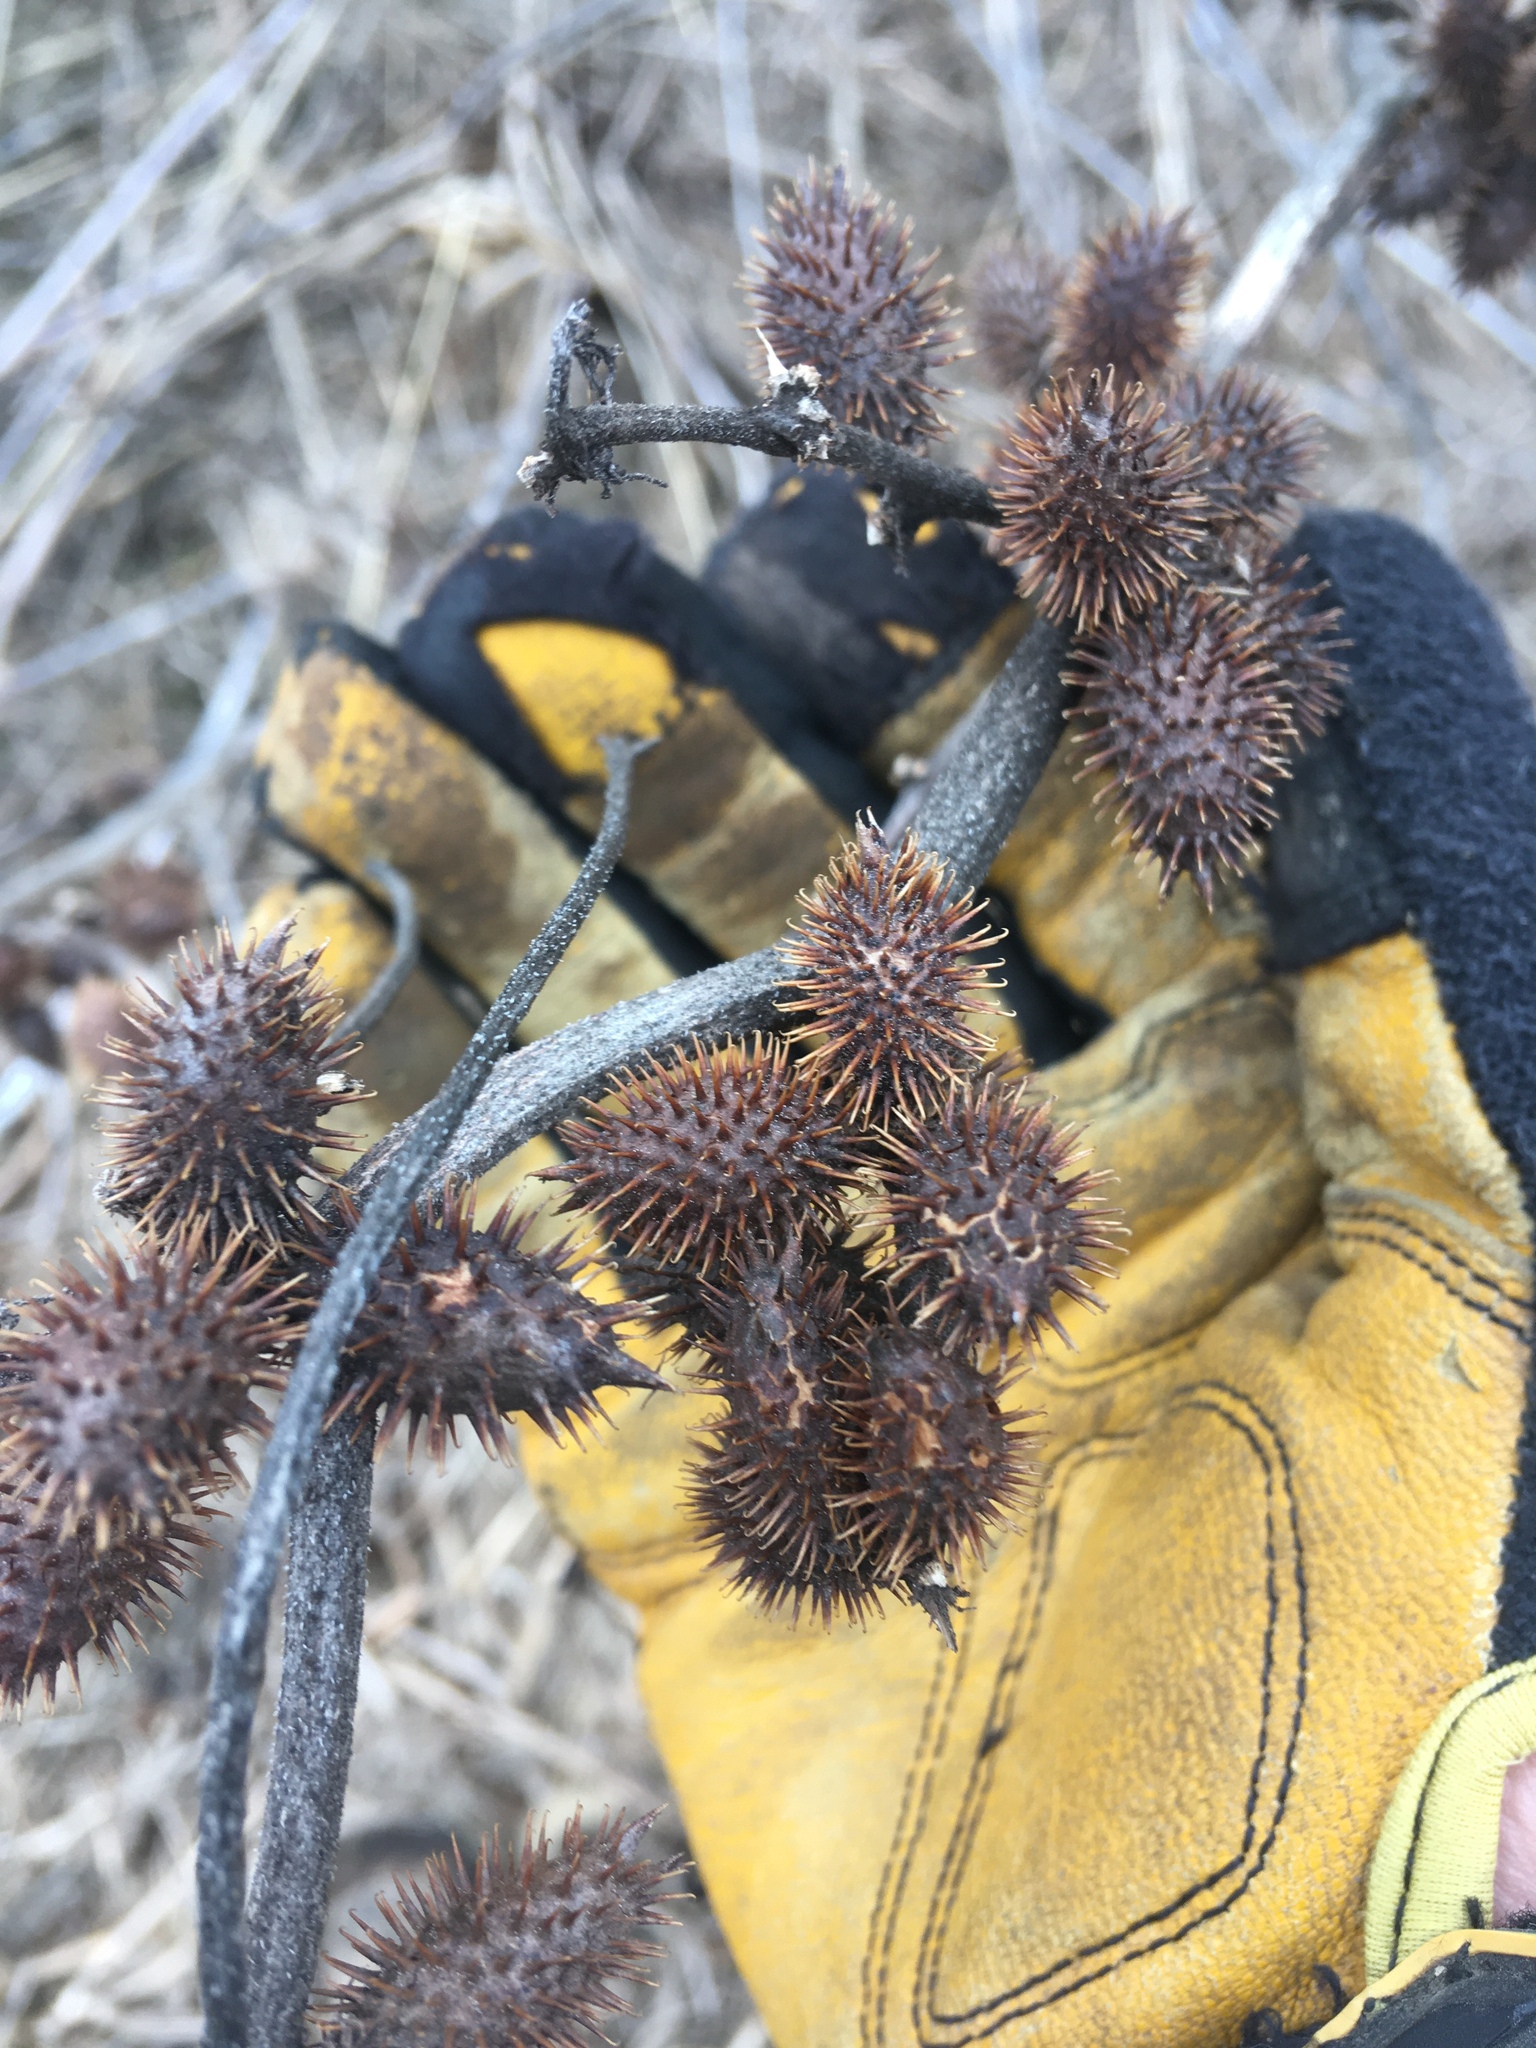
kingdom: Plantae
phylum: Tracheophyta
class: Magnoliopsida
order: Asterales
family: Asteraceae
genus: Xanthium
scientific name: Xanthium strumarium
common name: Rough cocklebur
